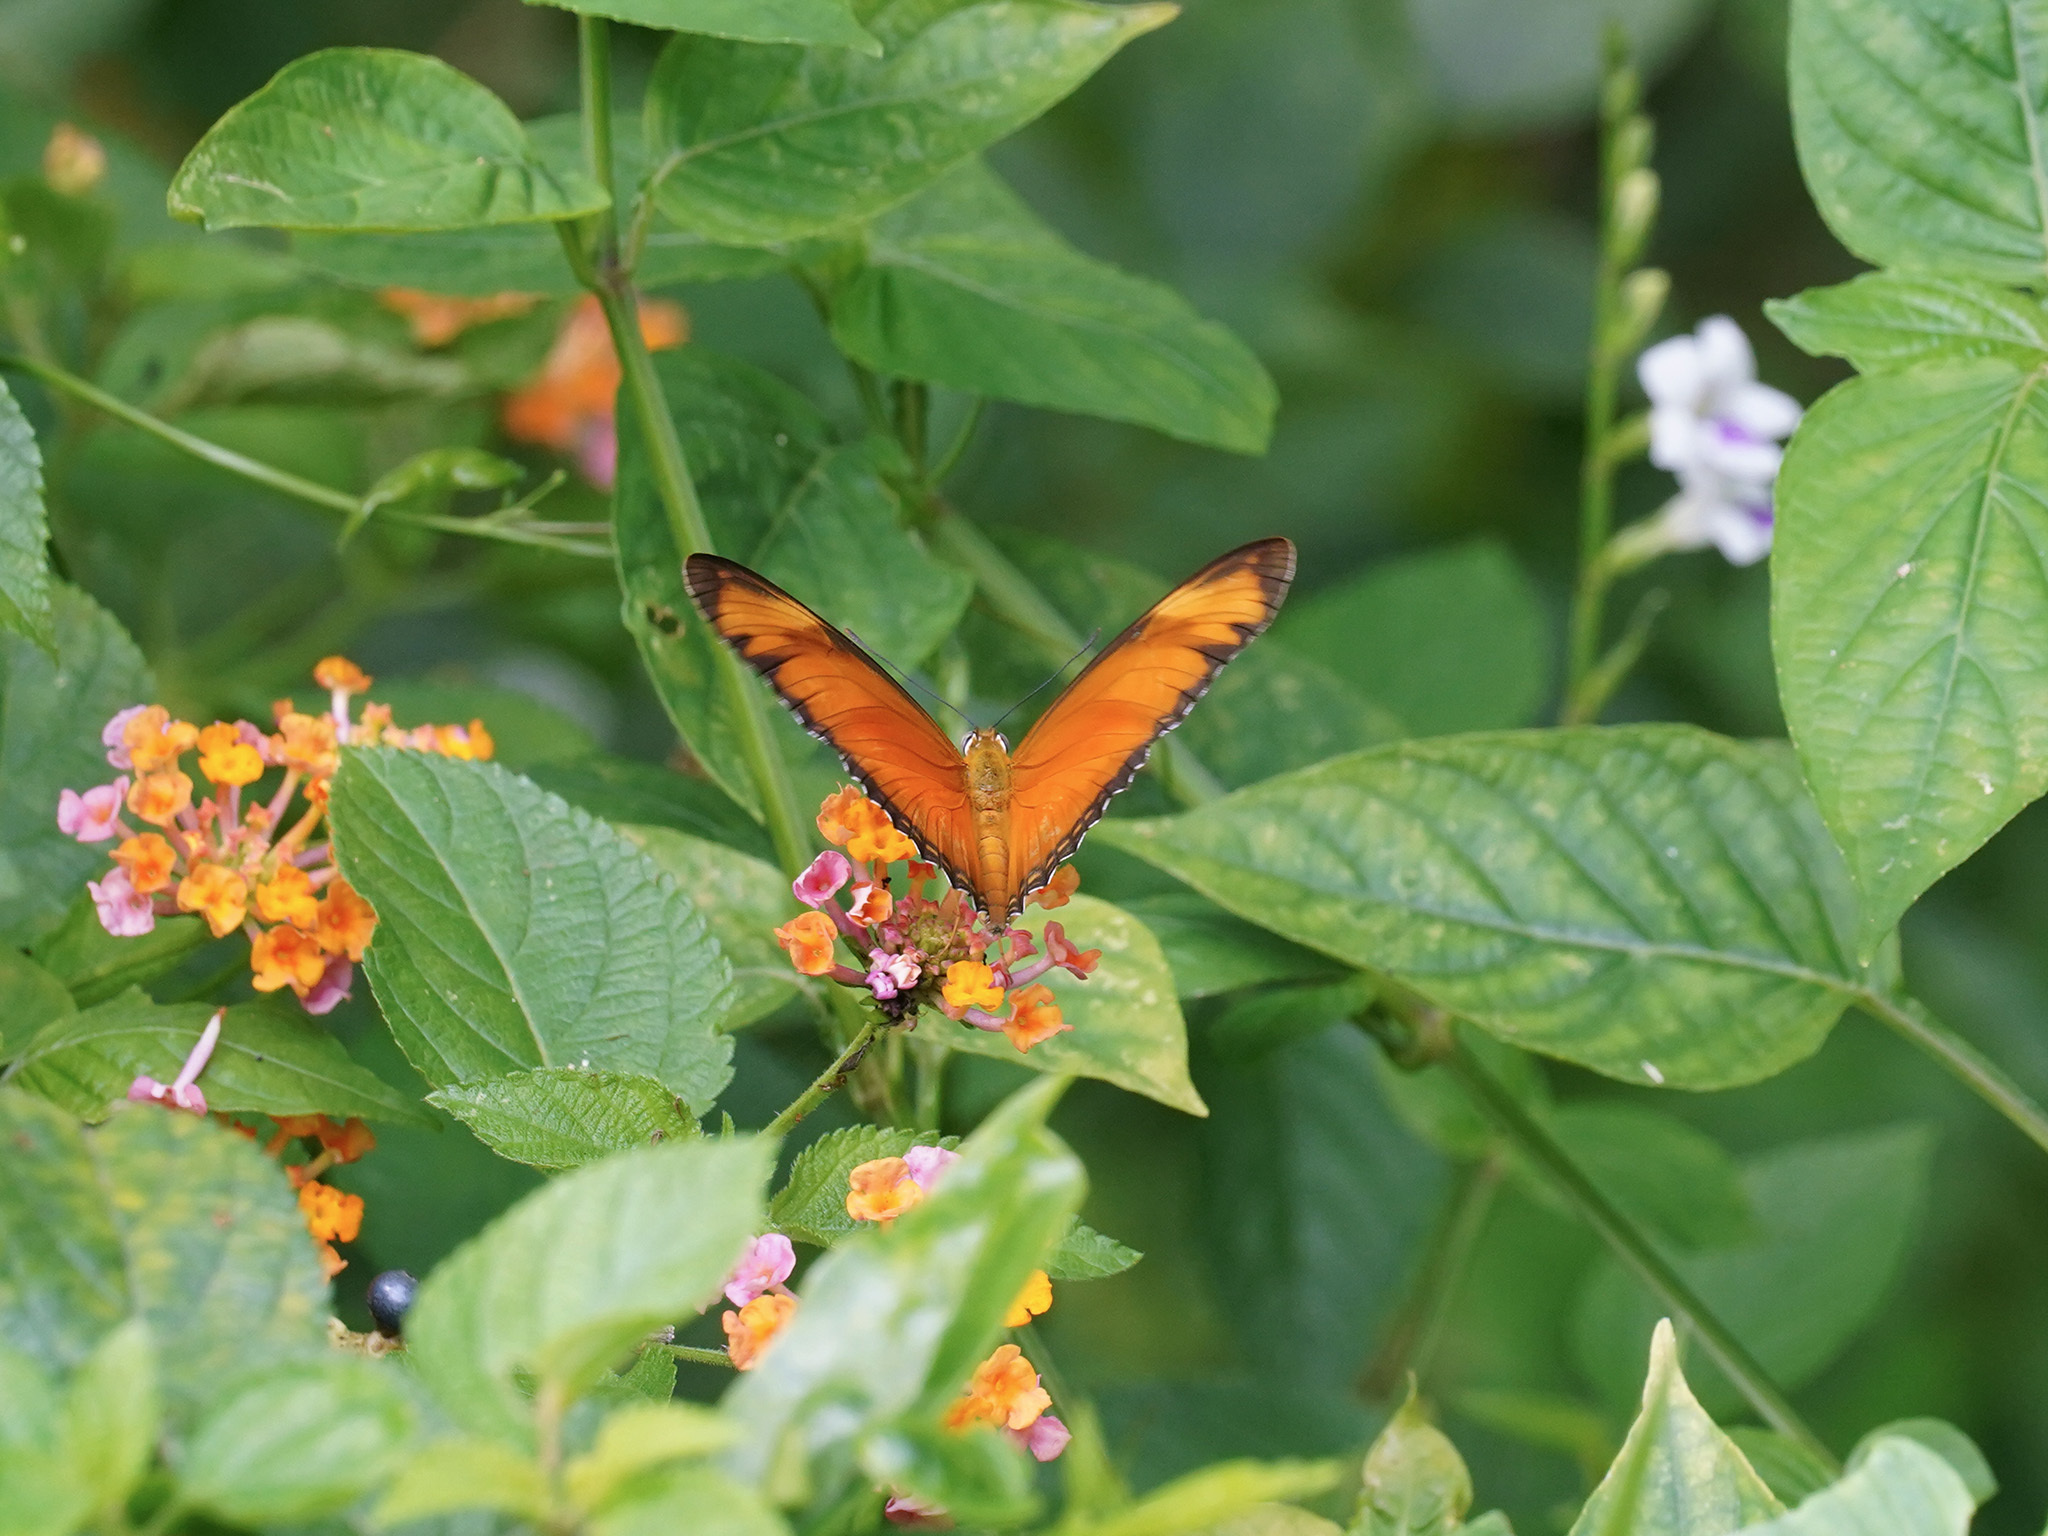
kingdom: Animalia
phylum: Arthropoda
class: Insecta
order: Lepidoptera
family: Nymphalidae
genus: Dryas
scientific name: Dryas iulia
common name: Flambeau
